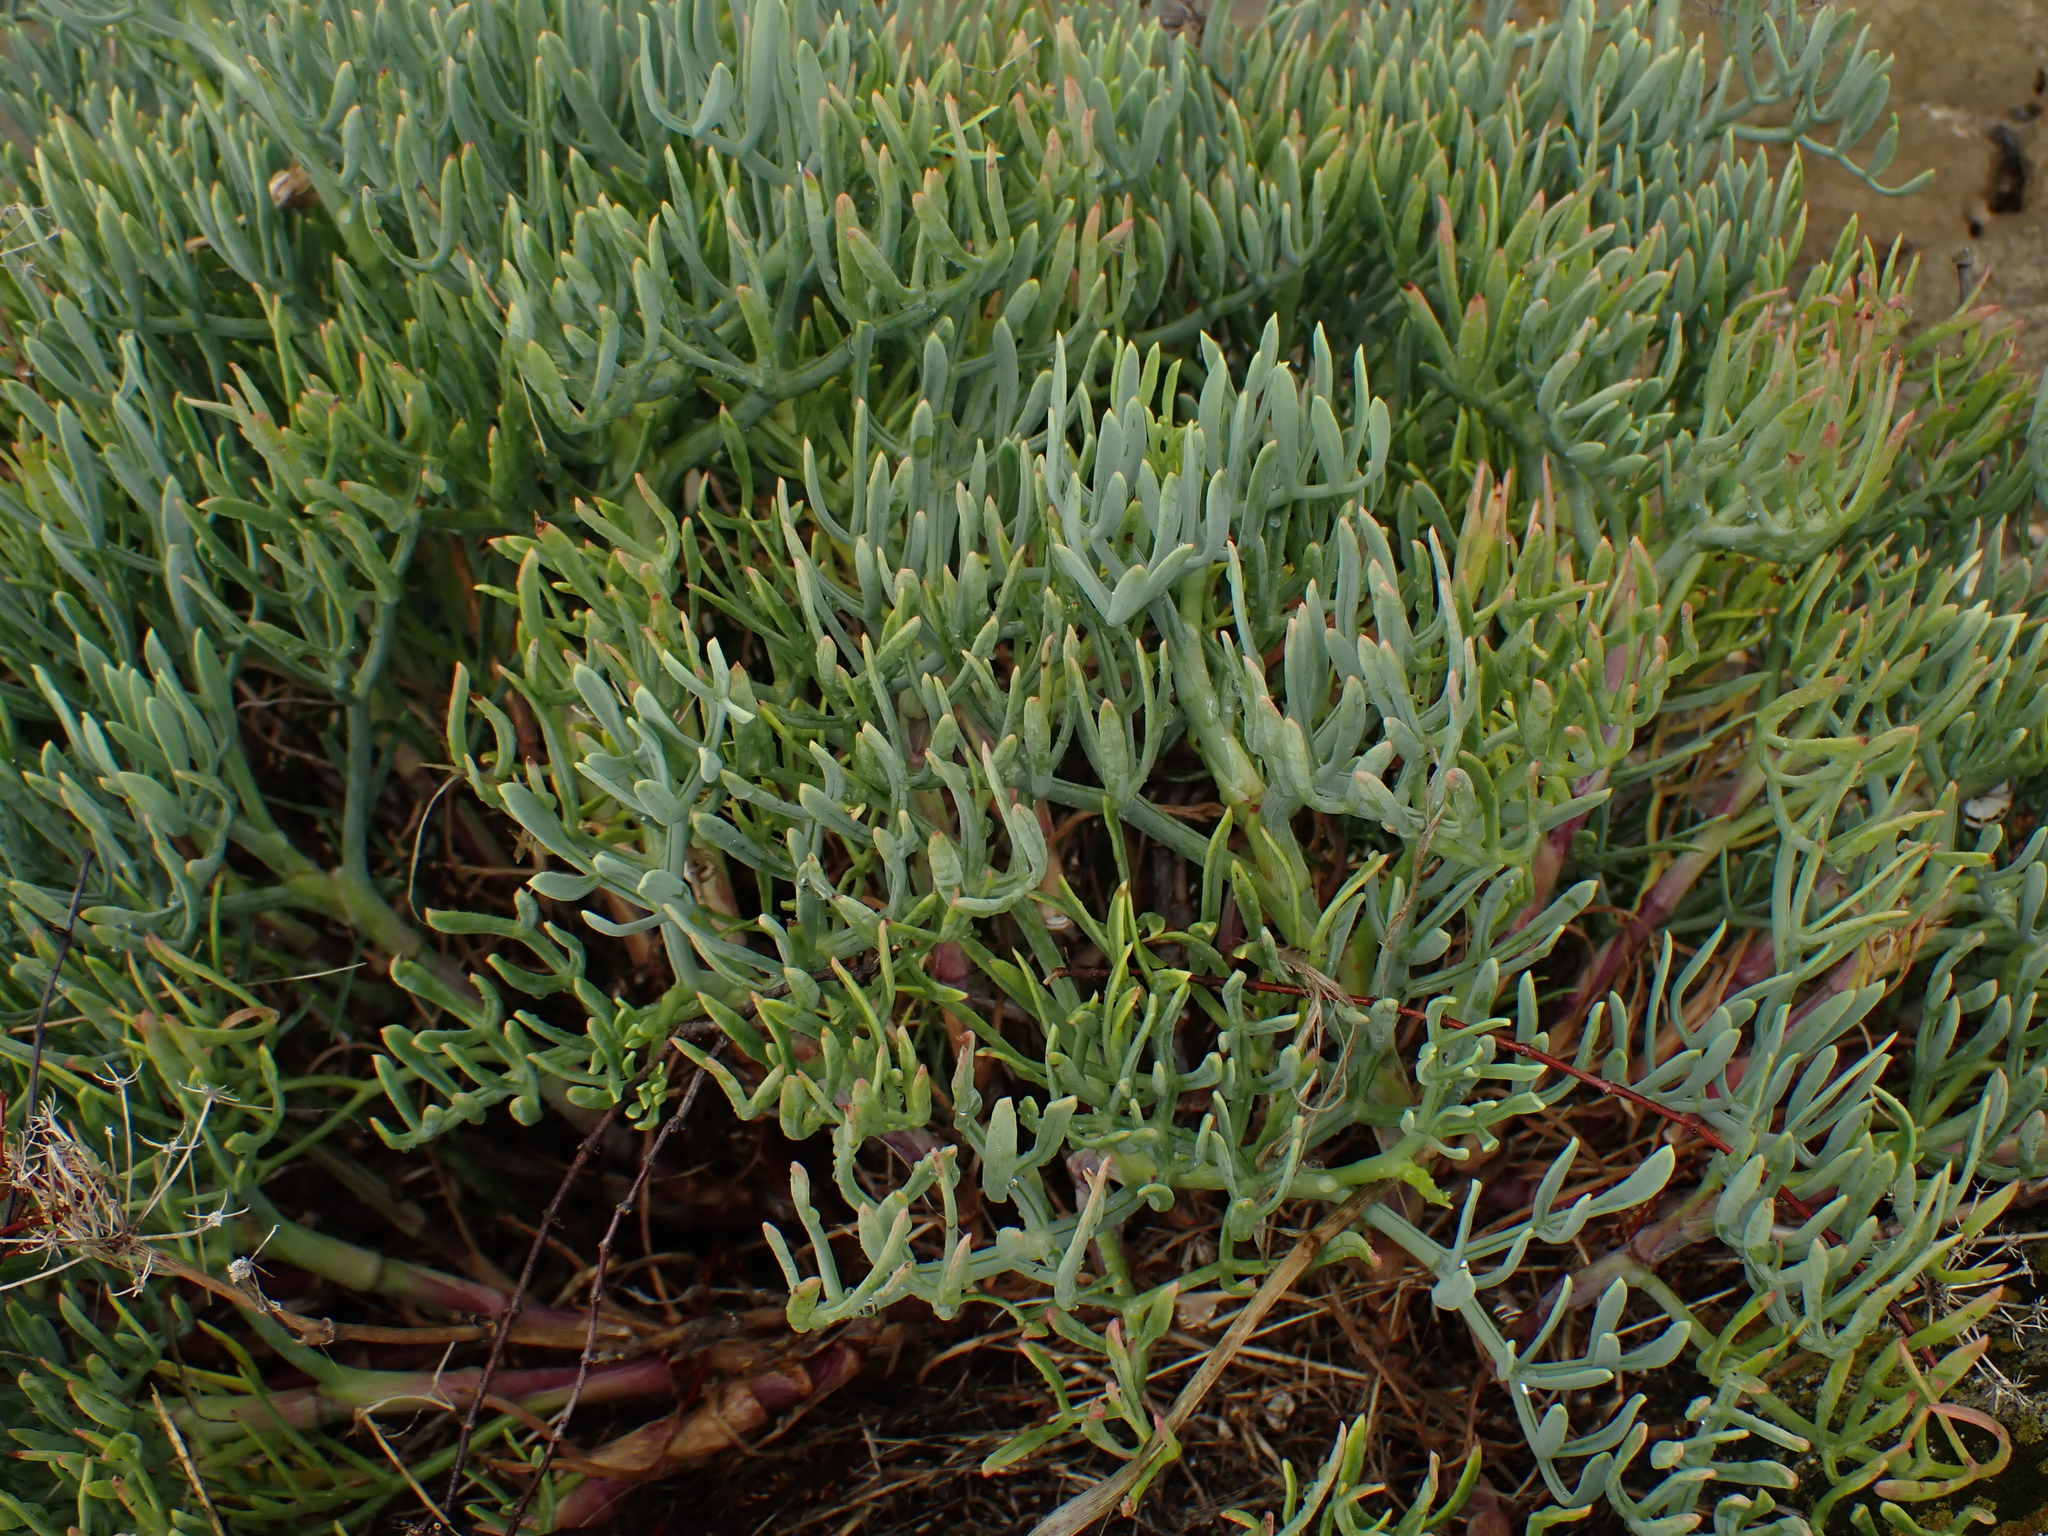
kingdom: Plantae
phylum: Tracheophyta
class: Magnoliopsida
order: Apiales
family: Apiaceae
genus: Crithmum
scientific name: Crithmum maritimum
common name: Rock samphire
